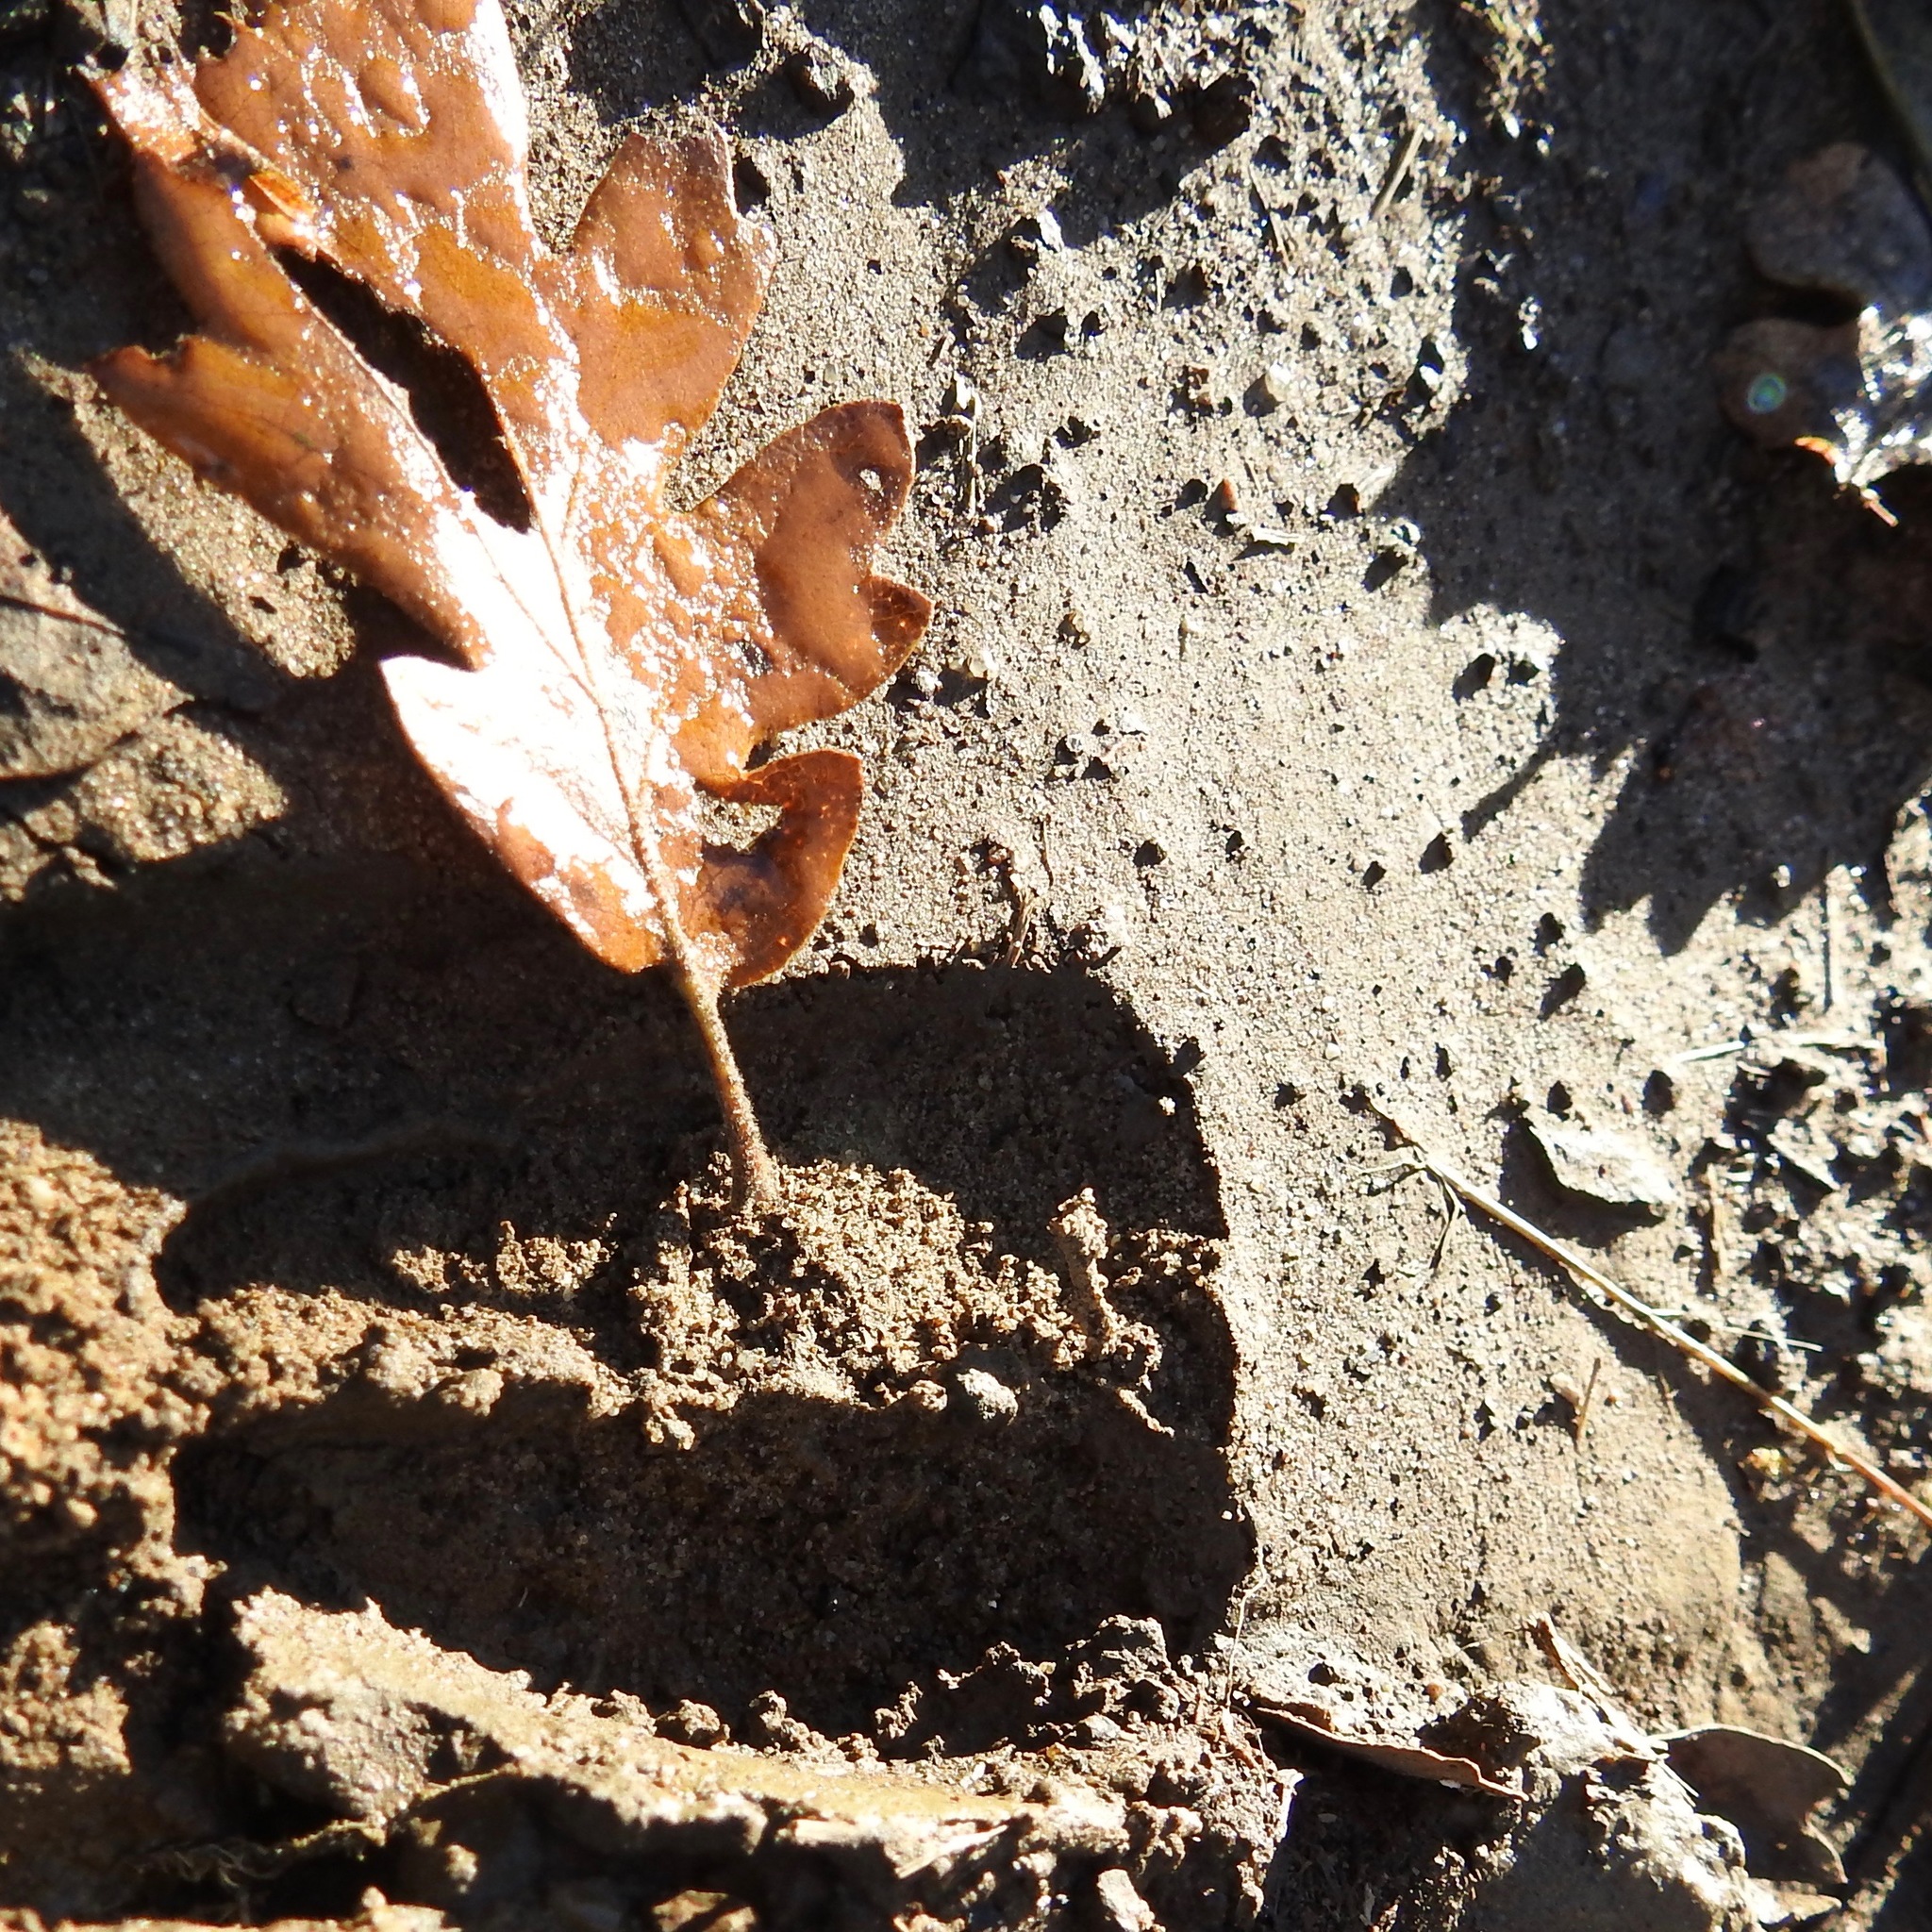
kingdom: Animalia
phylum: Chordata
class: Mammalia
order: Artiodactyla
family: Cervidae
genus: Odocoileus
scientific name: Odocoileus hemionus
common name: Mule deer
